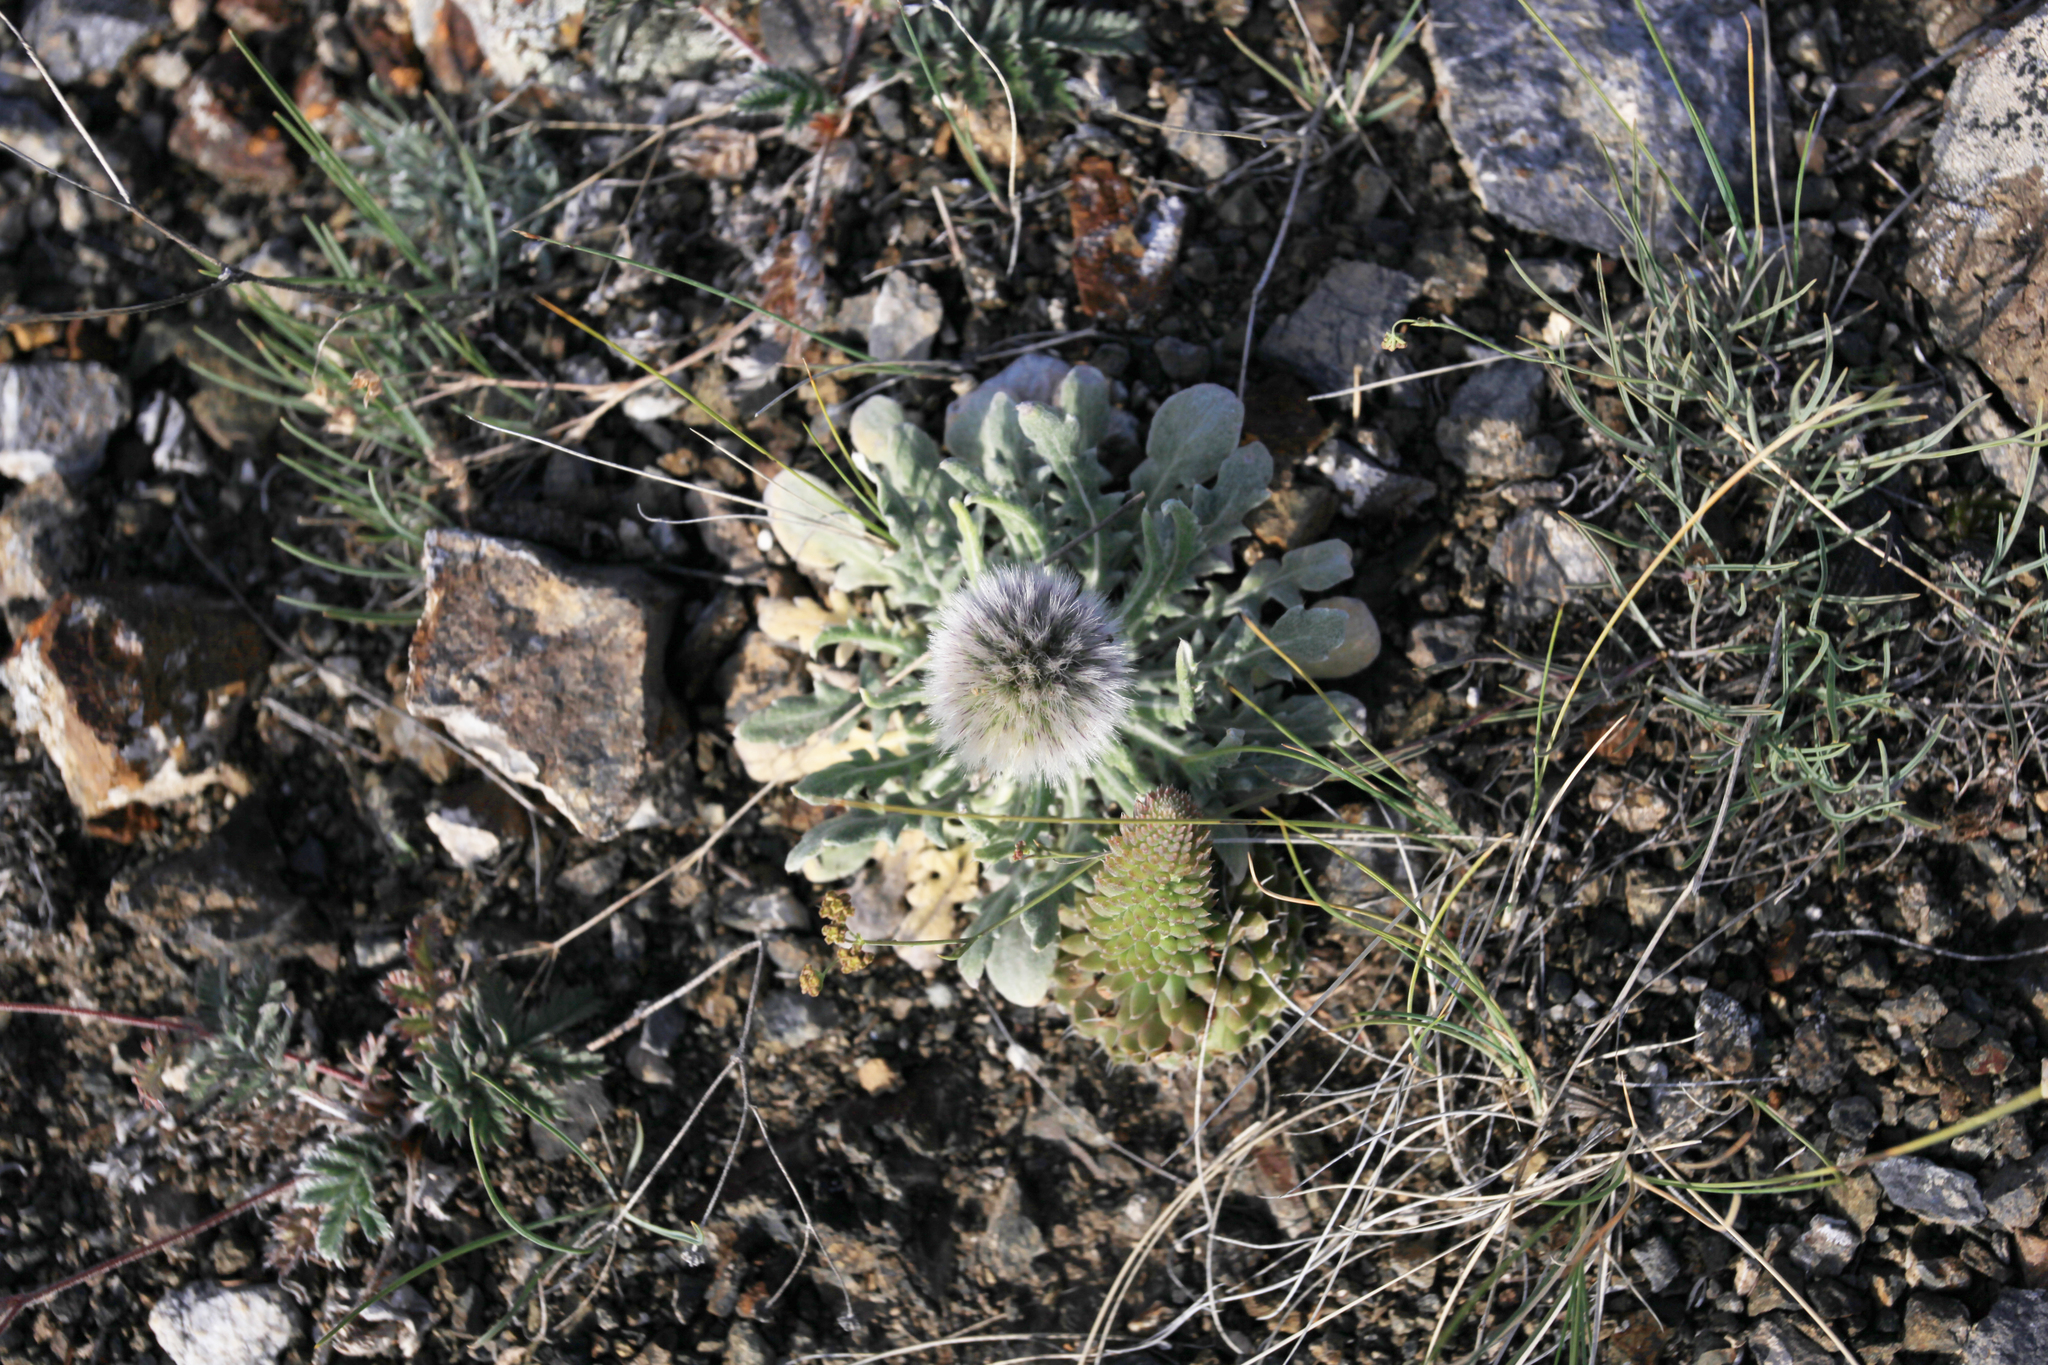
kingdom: Plantae
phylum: Tracheophyta
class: Magnoliopsida
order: Asterales
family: Asteraceae
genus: Echinops
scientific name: Echinops humilis
